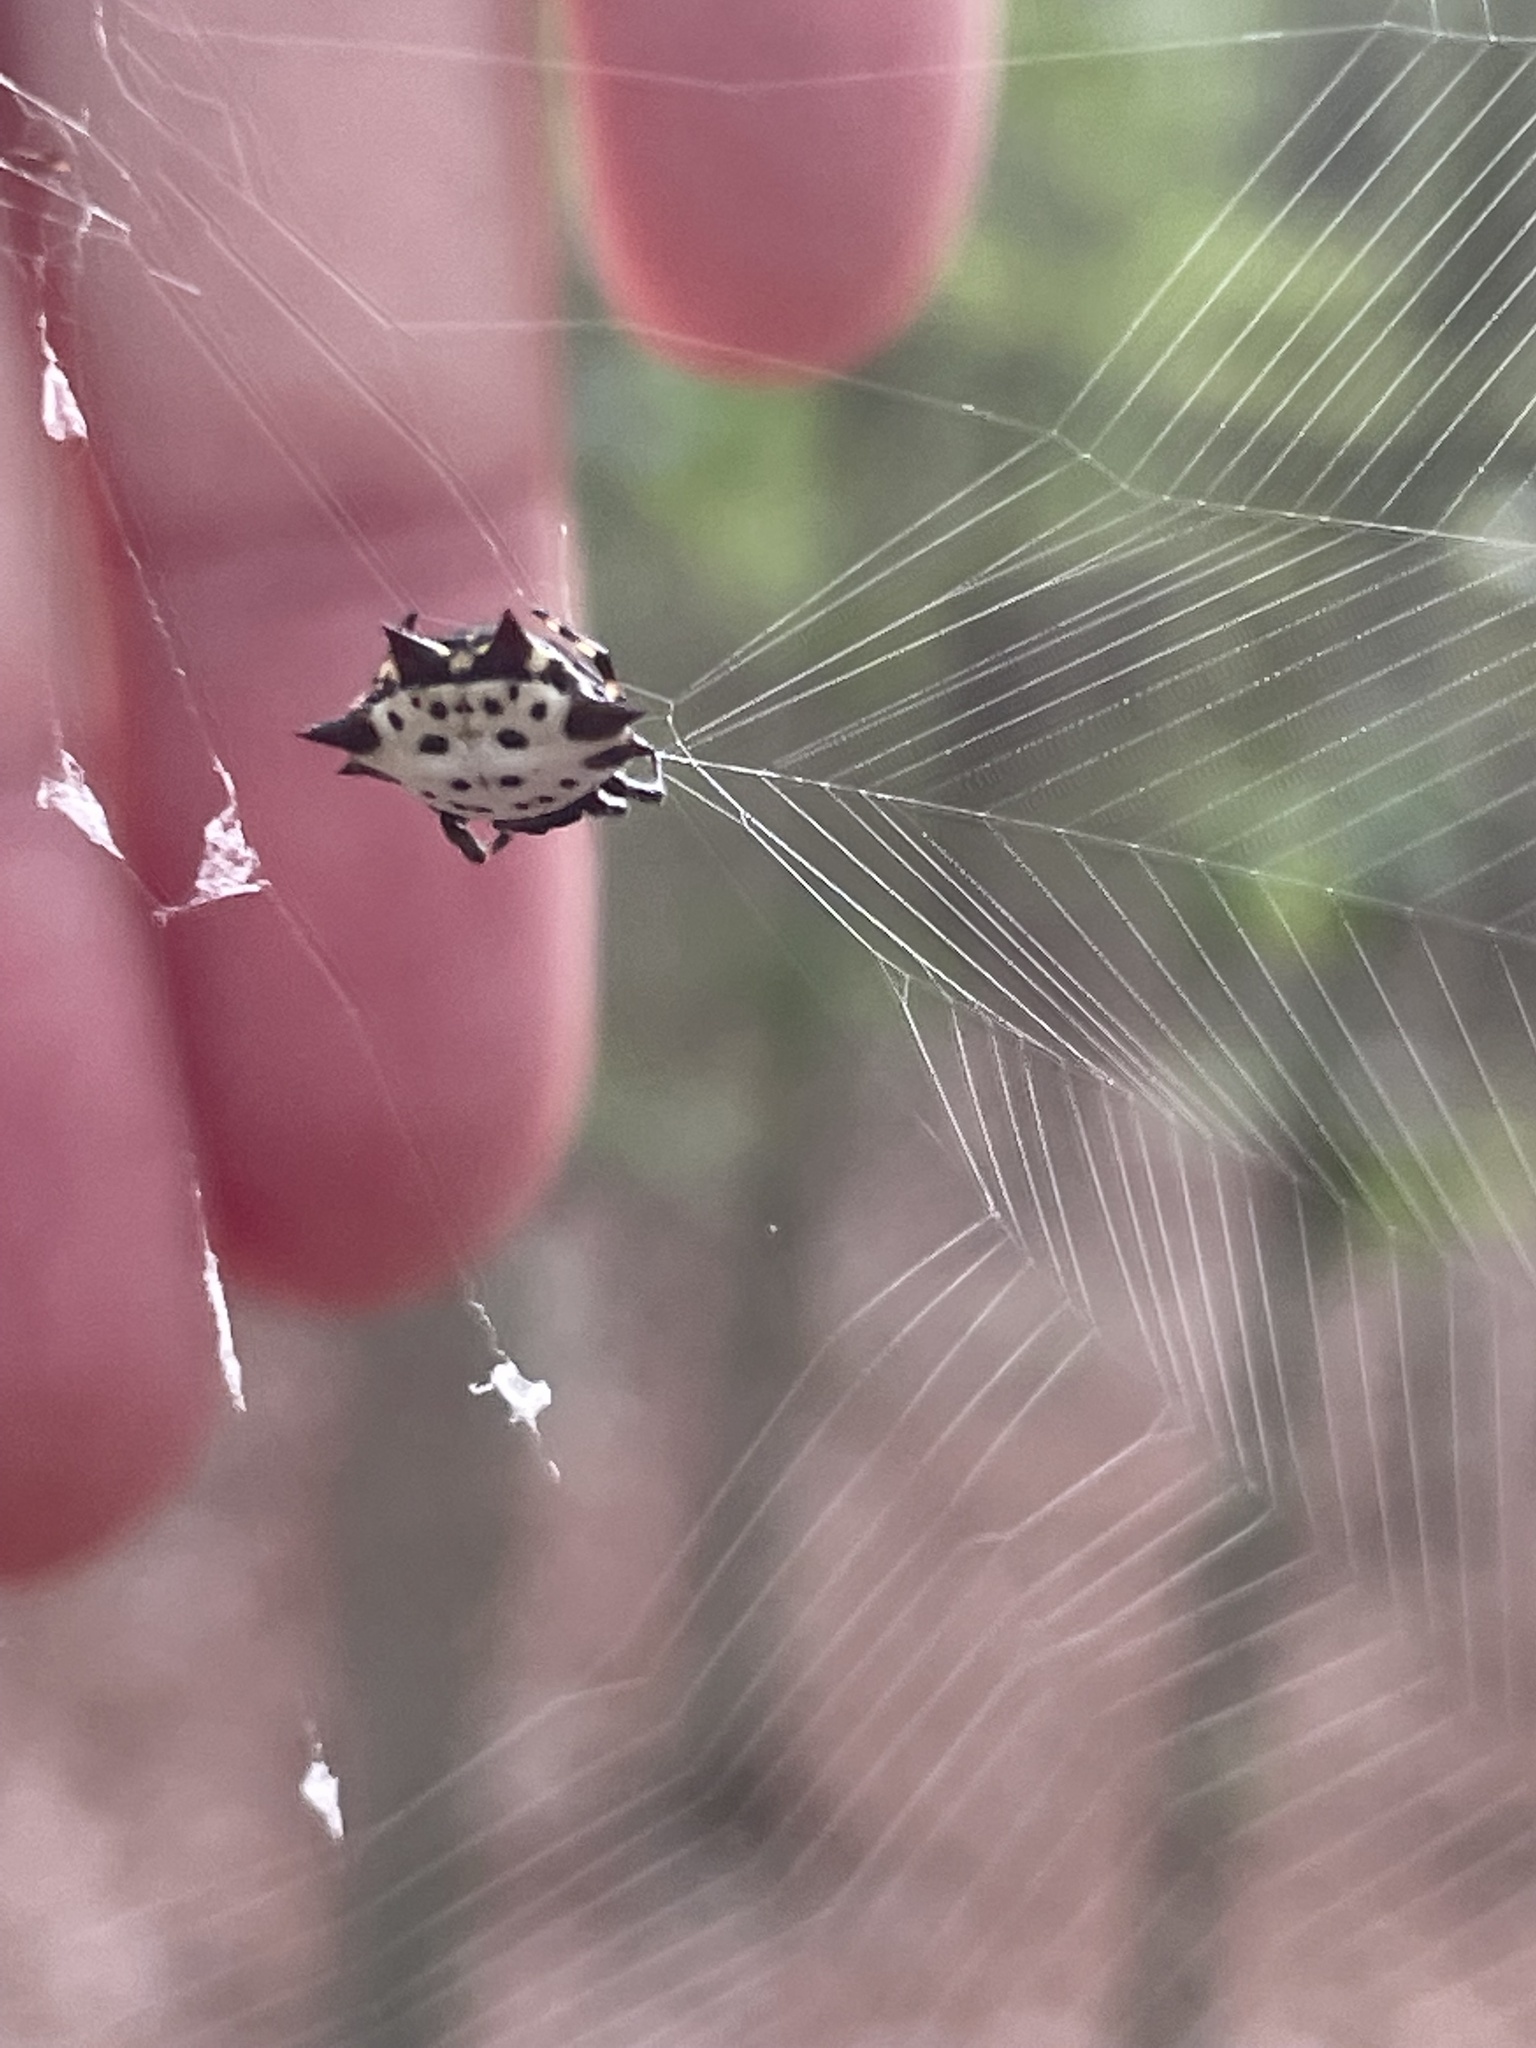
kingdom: Animalia
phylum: Arthropoda
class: Arachnida
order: Araneae
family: Araneidae
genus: Gasteracantha
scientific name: Gasteracantha cancriformis
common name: Orb weavers
